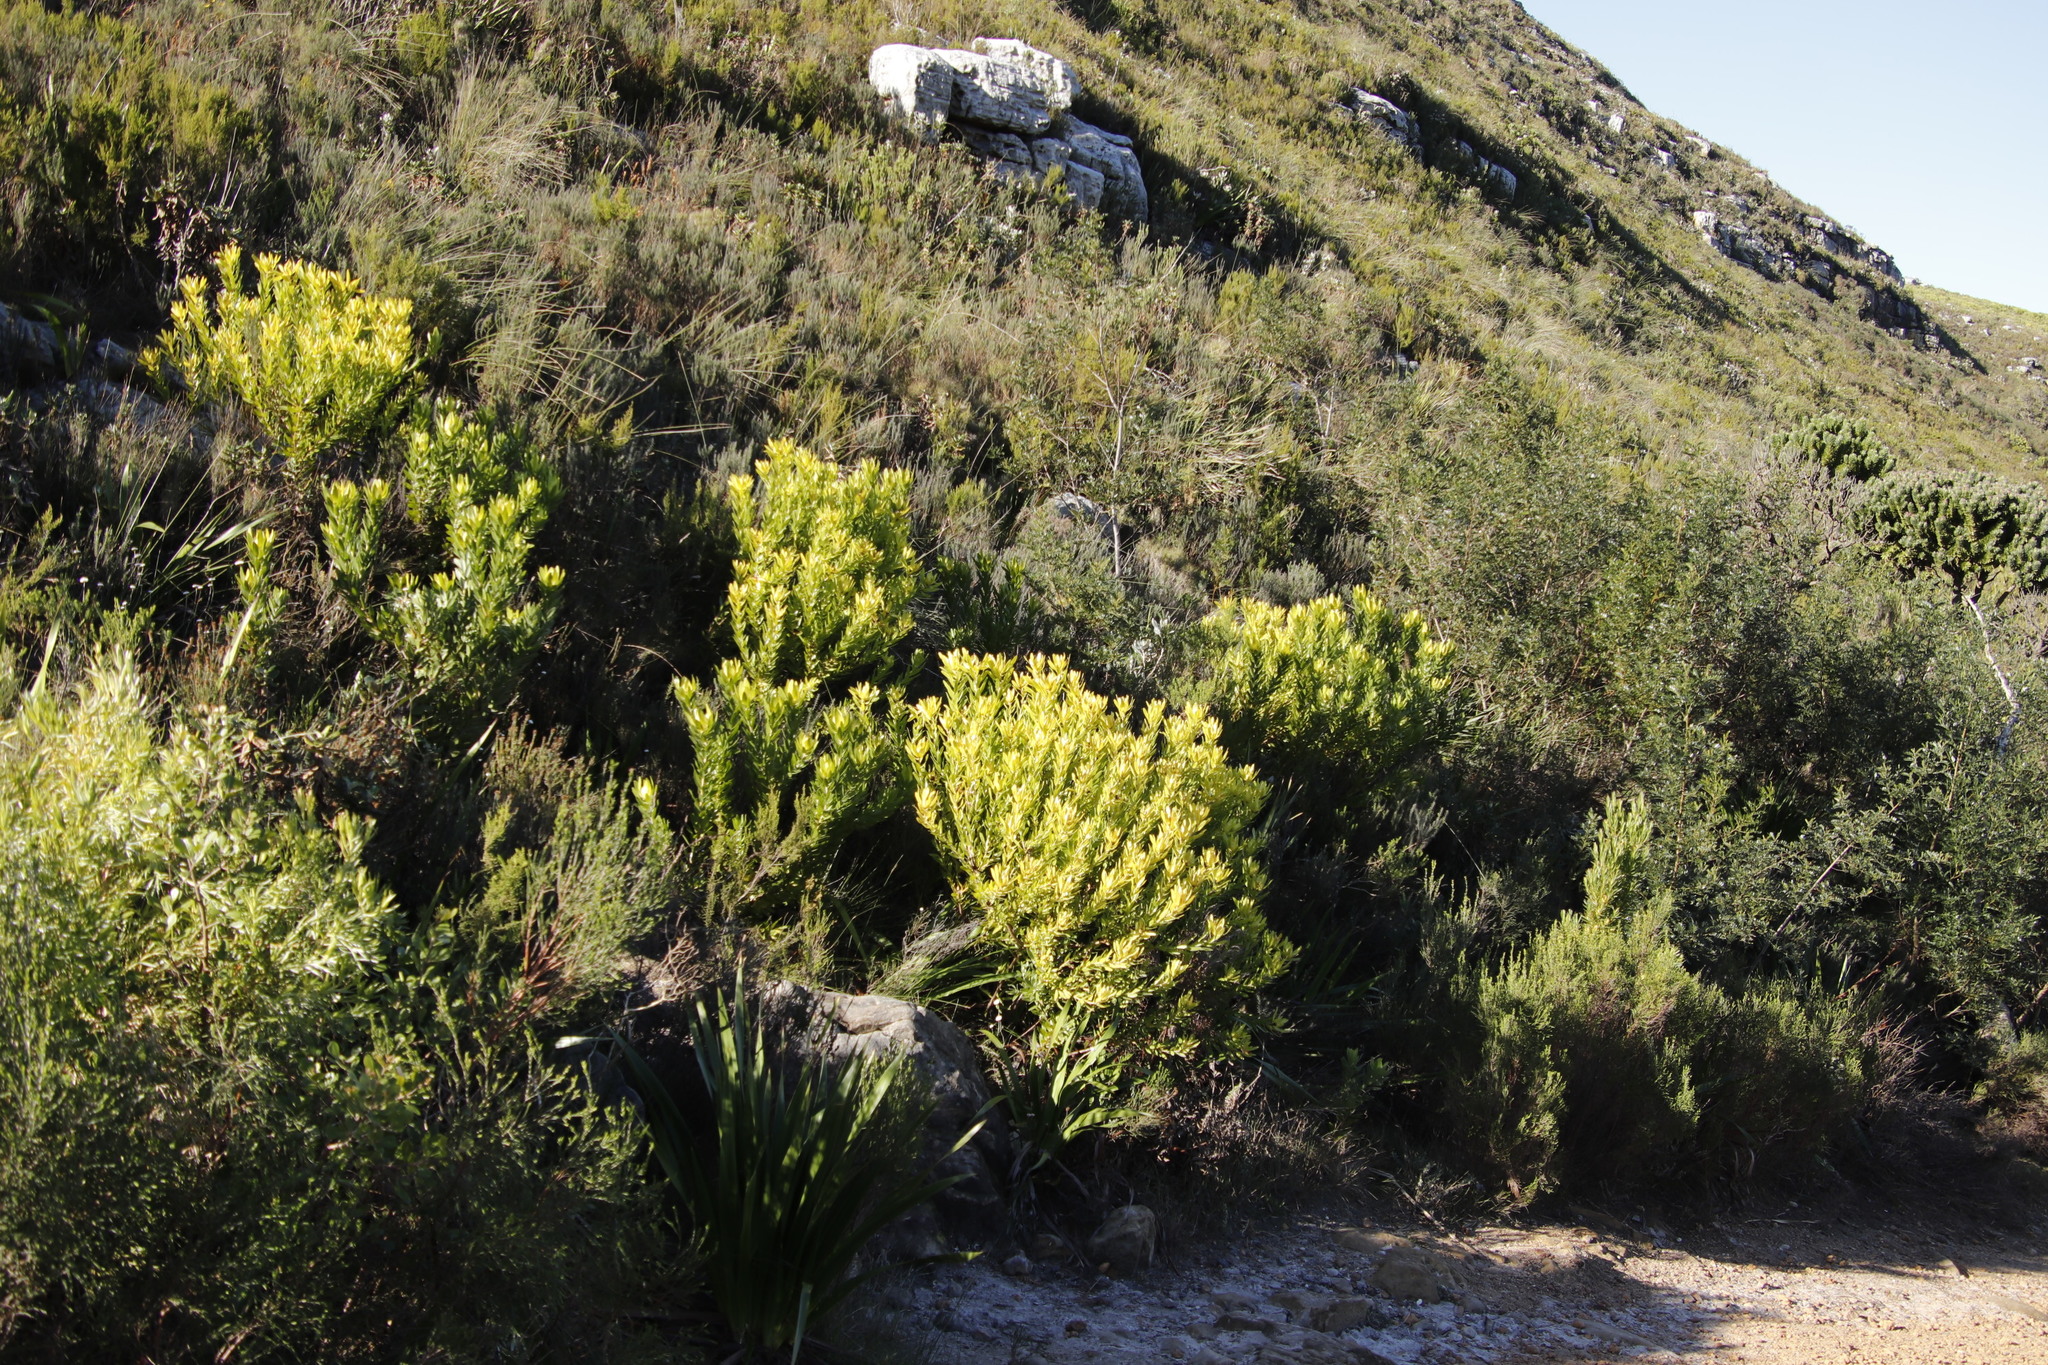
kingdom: Plantae
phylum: Tracheophyta
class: Magnoliopsida
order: Proteales
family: Proteaceae
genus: Leucadendron
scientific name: Leucadendron laureolum
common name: Golden sunshinebush
